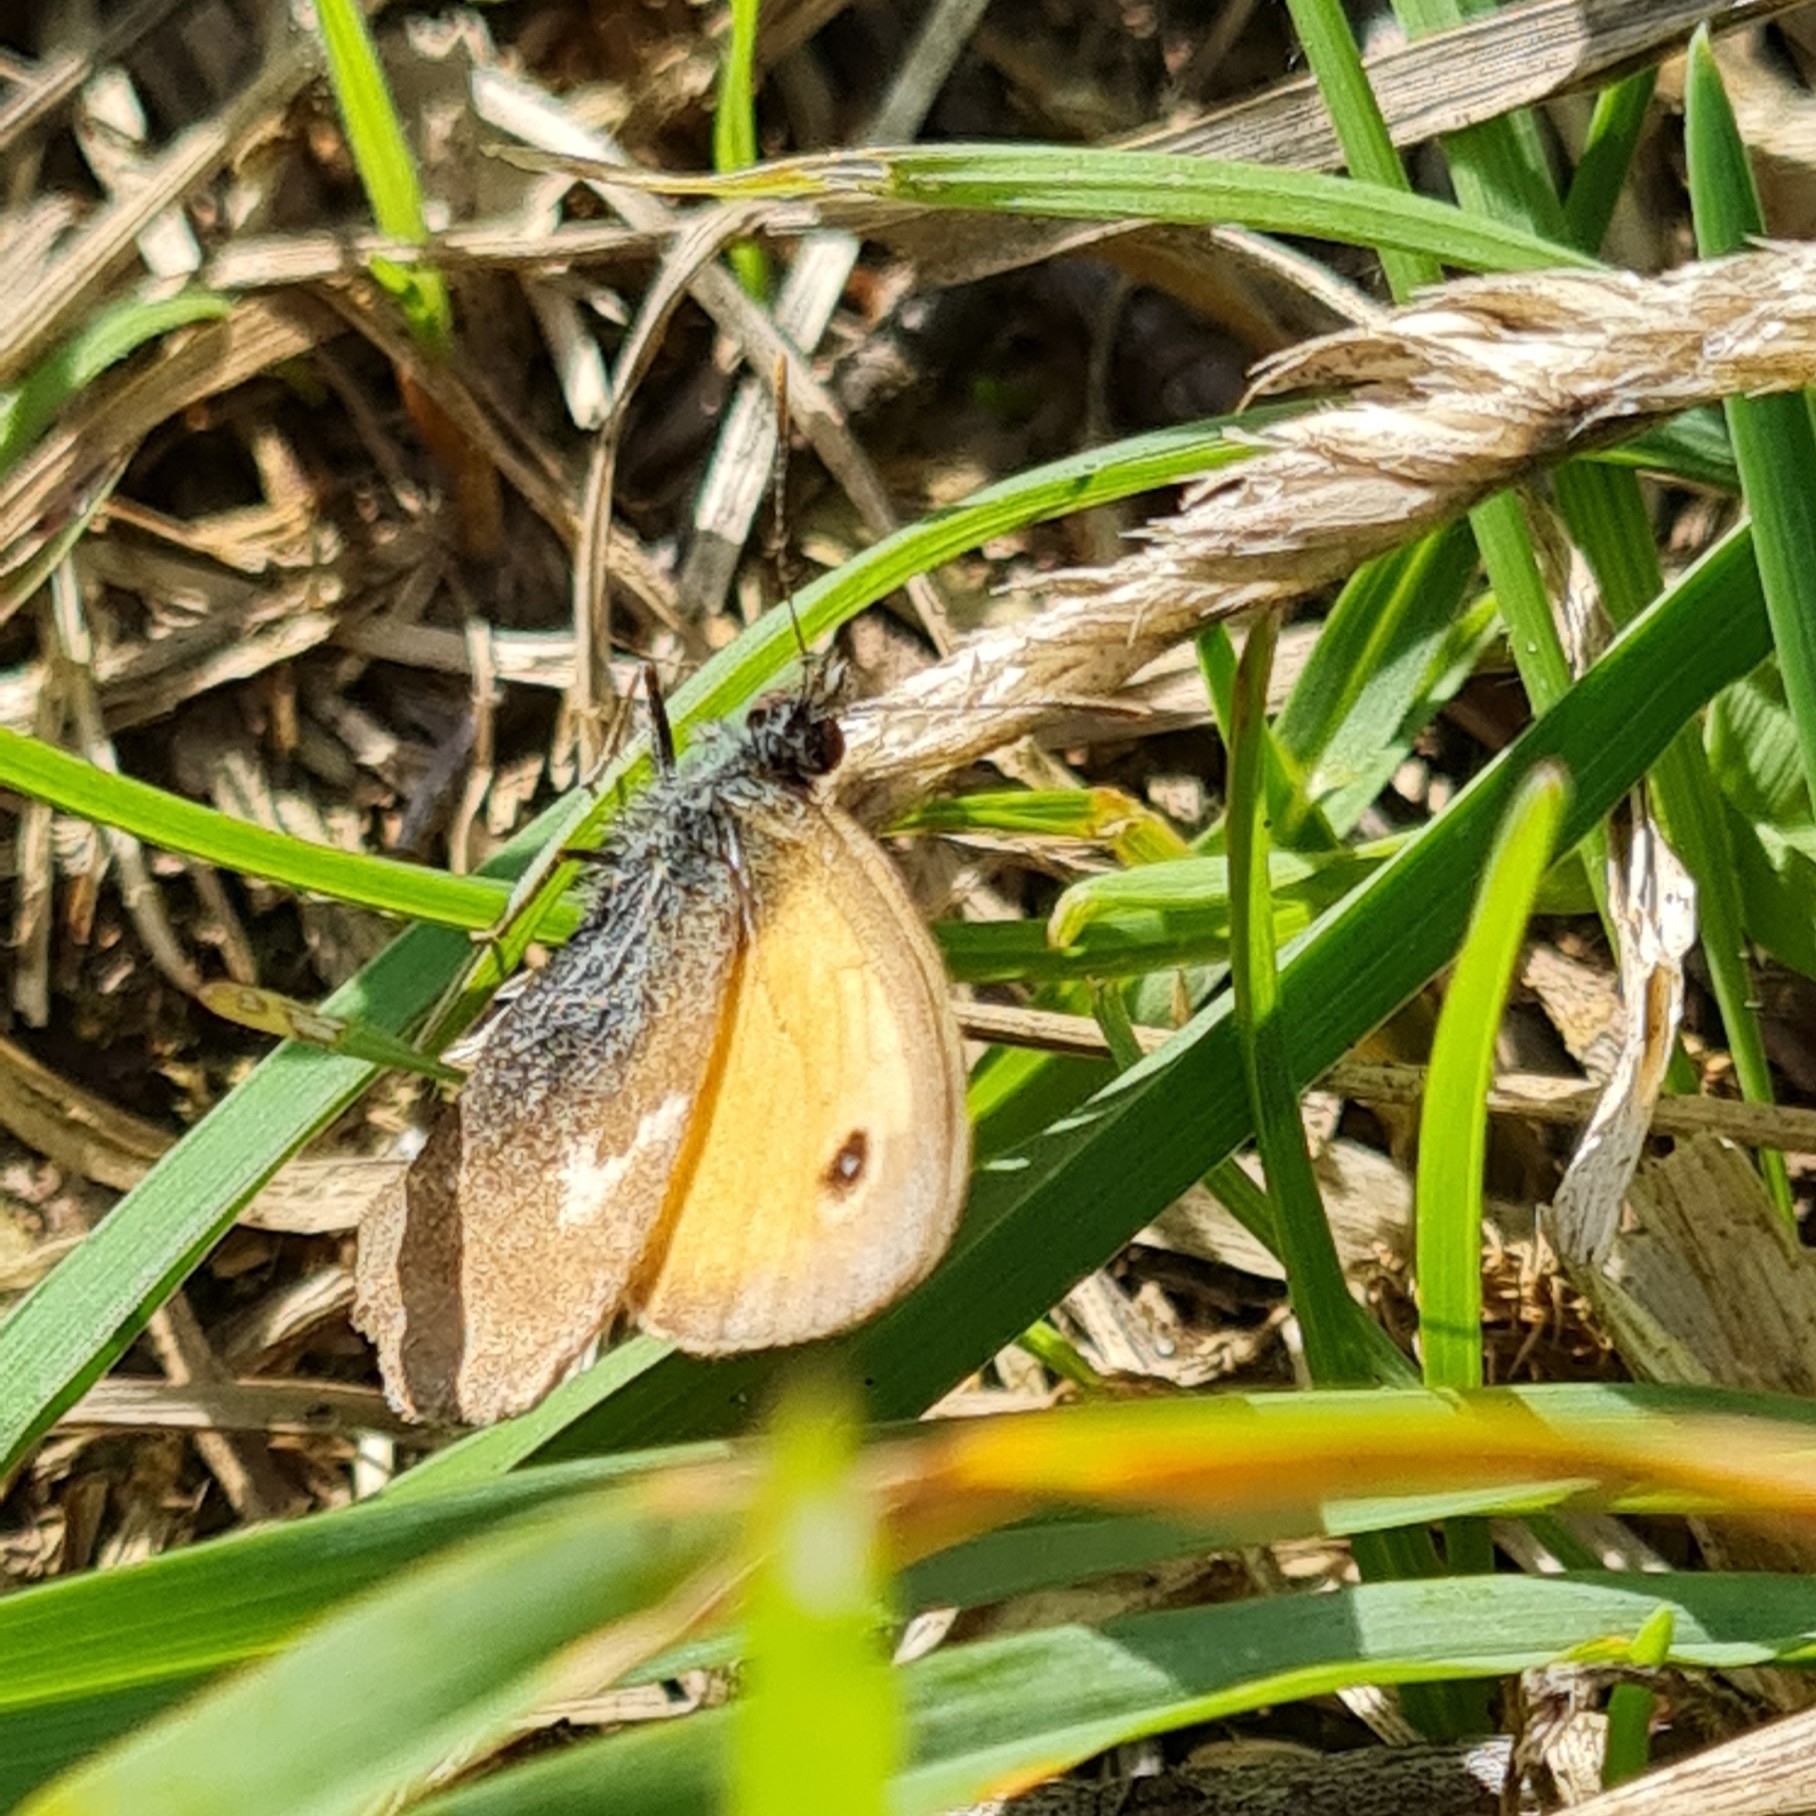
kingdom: Animalia
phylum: Arthropoda
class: Insecta
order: Lepidoptera
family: Nymphalidae
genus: Coenonympha
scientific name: Coenonympha pamphilus
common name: Small heath
